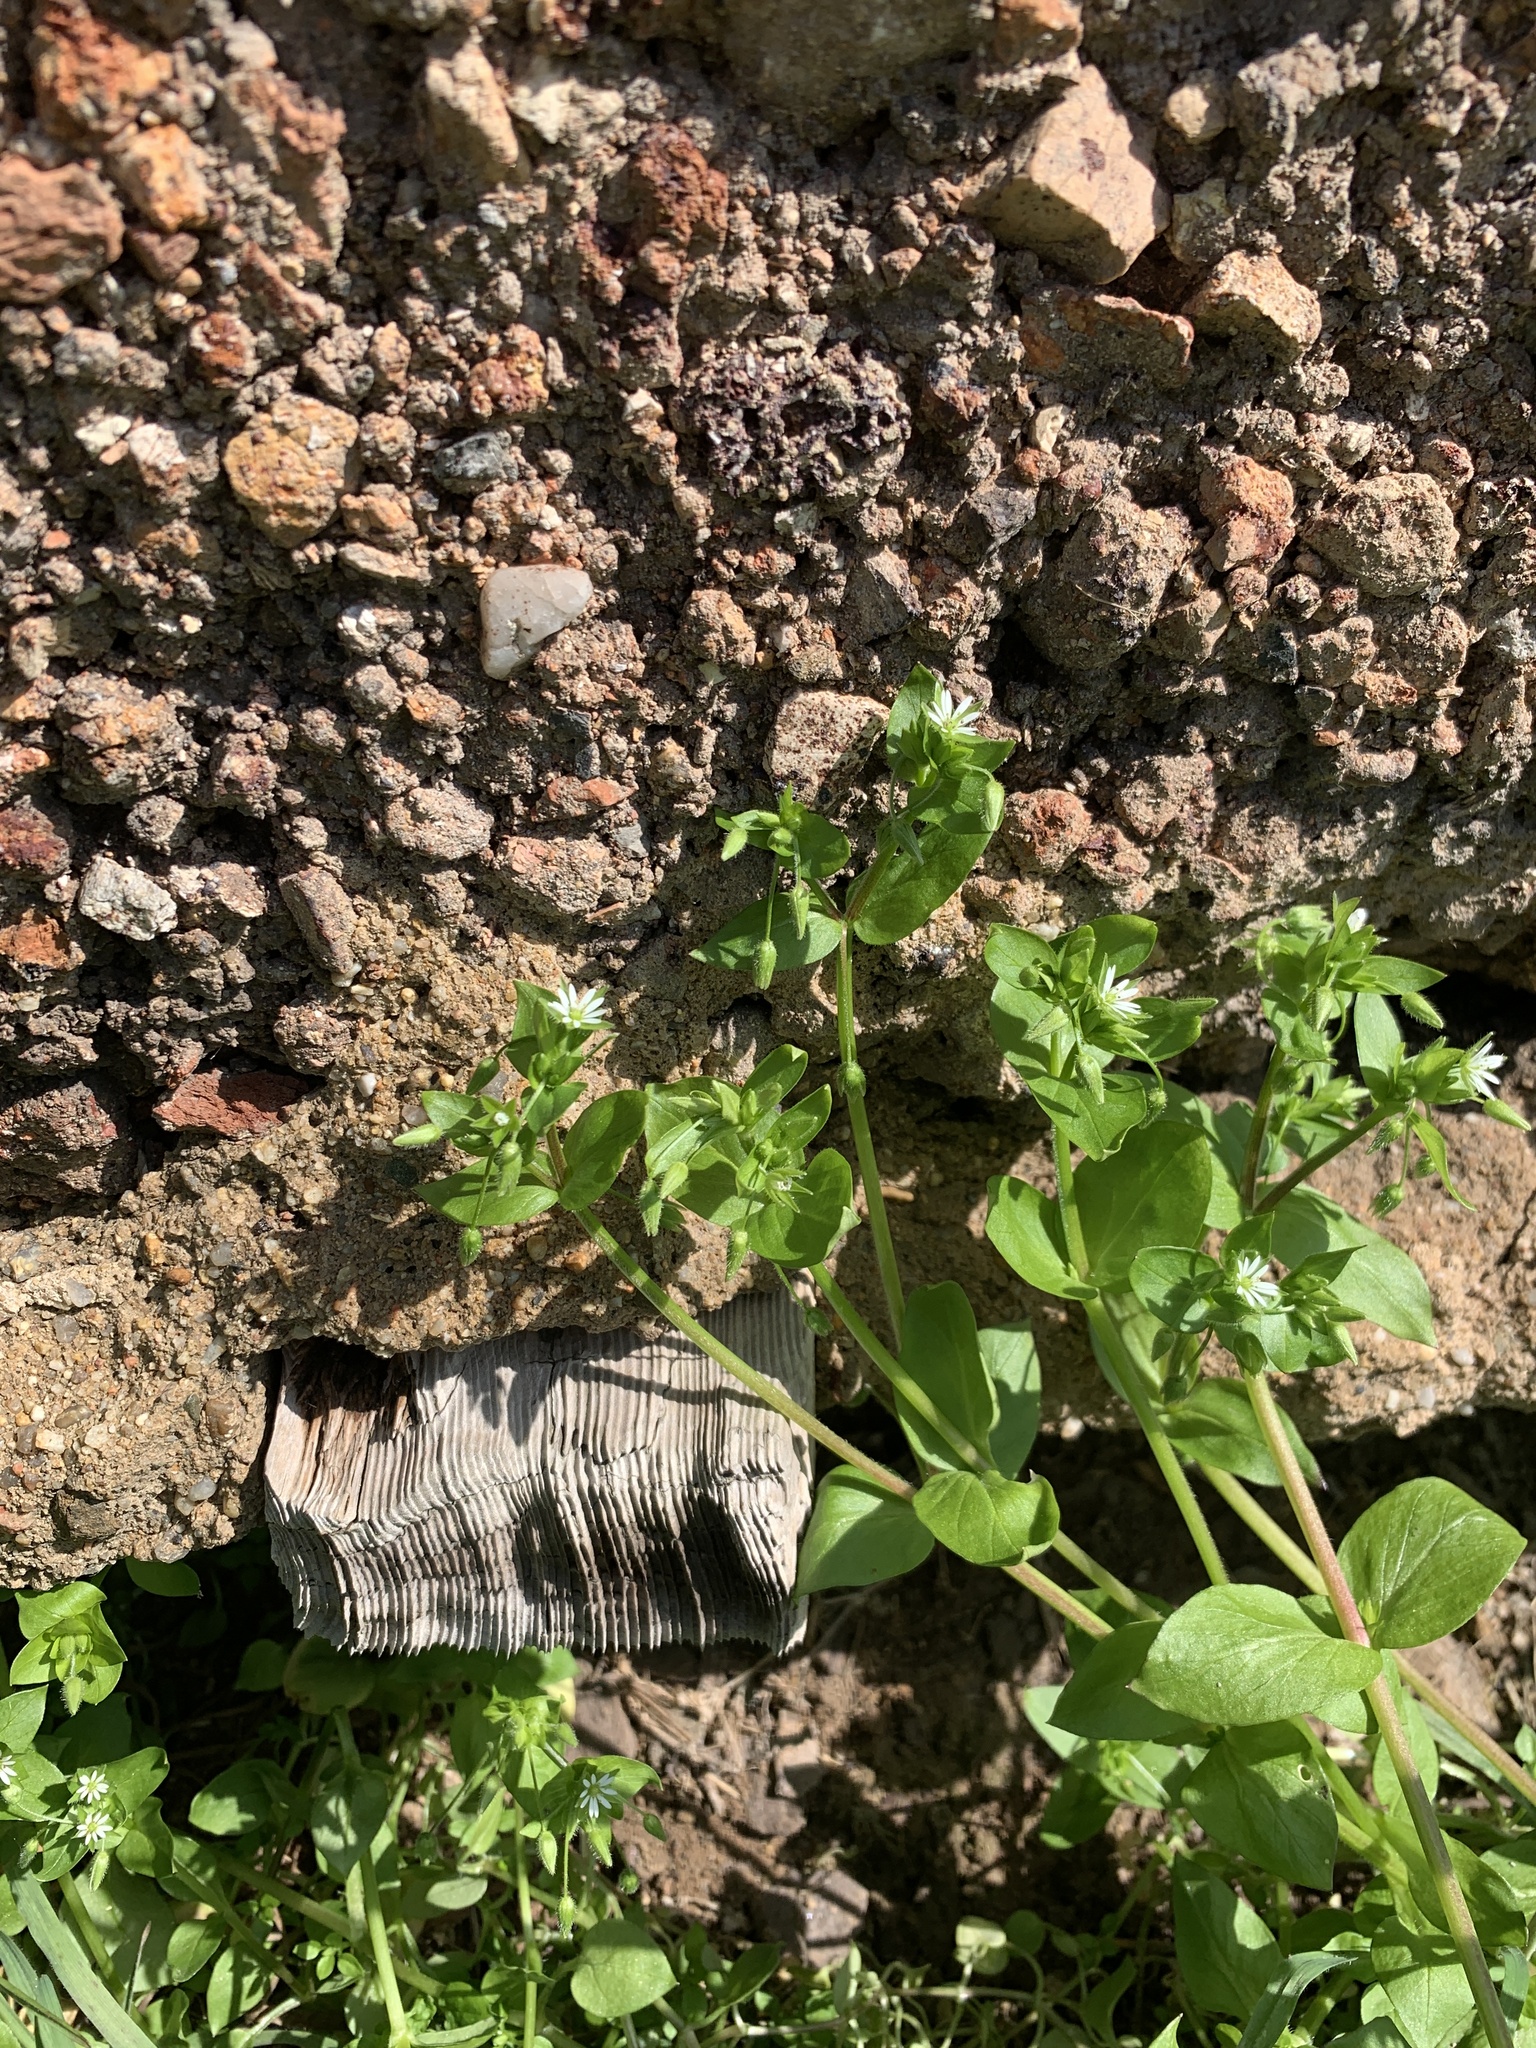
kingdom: Plantae
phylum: Tracheophyta
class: Magnoliopsida
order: Caryophyllales
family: Caryophyllaceae
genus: Stellaria
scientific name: Stellaria media
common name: Common chickweed
